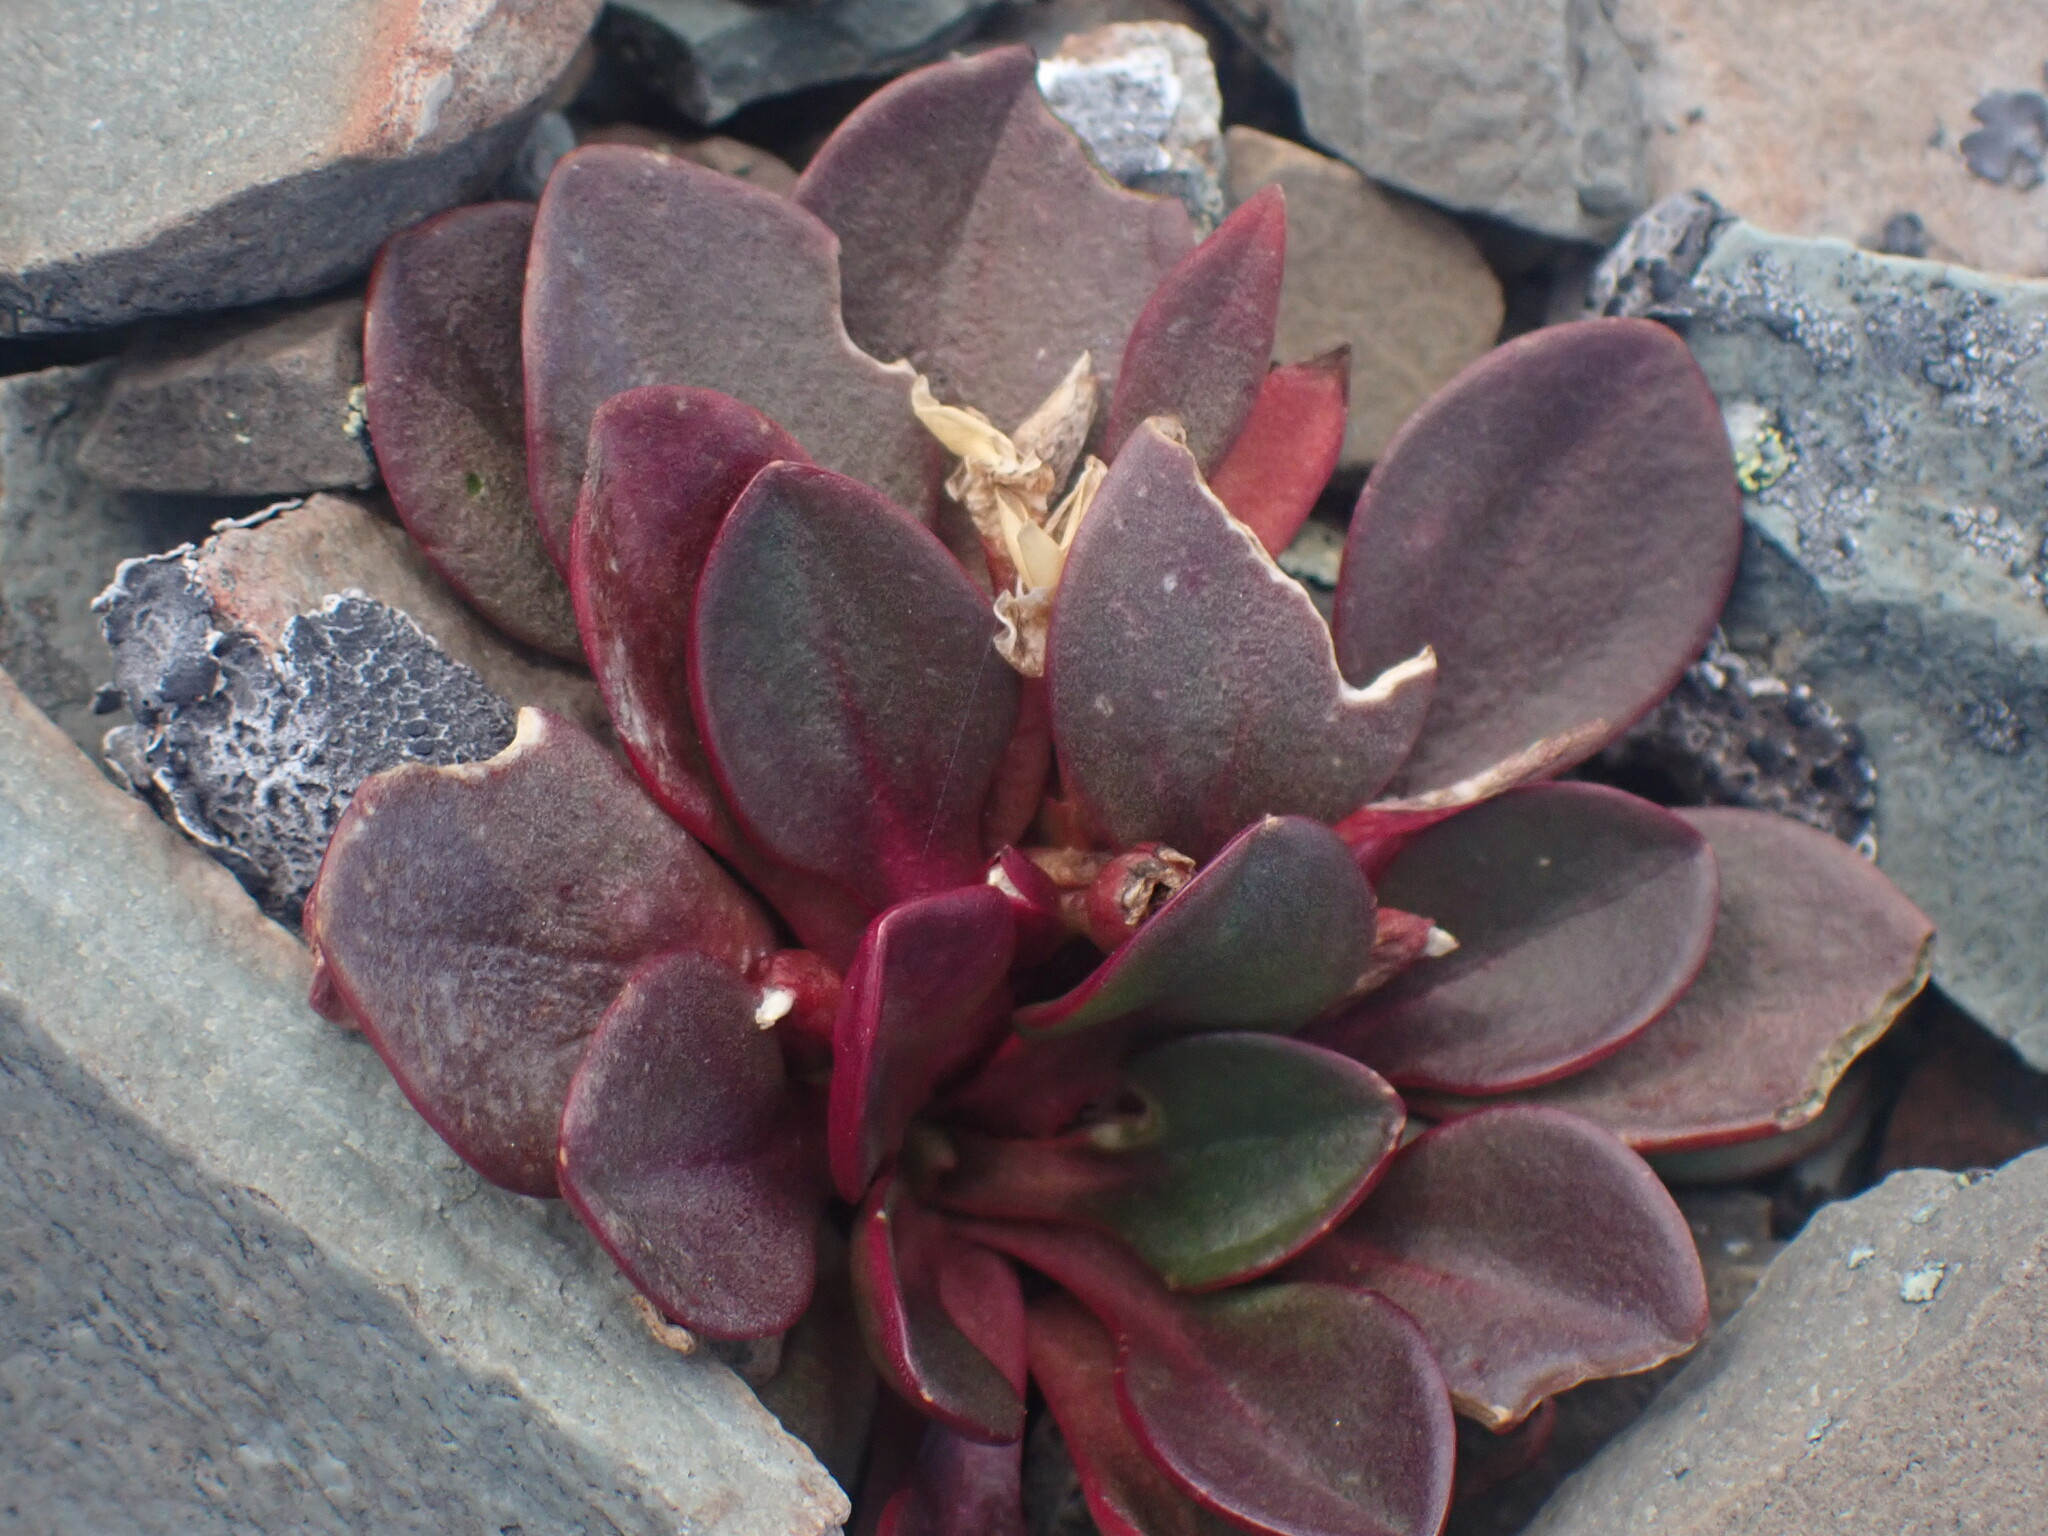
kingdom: Plantae
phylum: Tracheophyta
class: Magnoliopsida
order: Caryophyllales
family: Montiaceae
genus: Claytonia
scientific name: Claytonia megarhiza
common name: Alpine spring beauty
